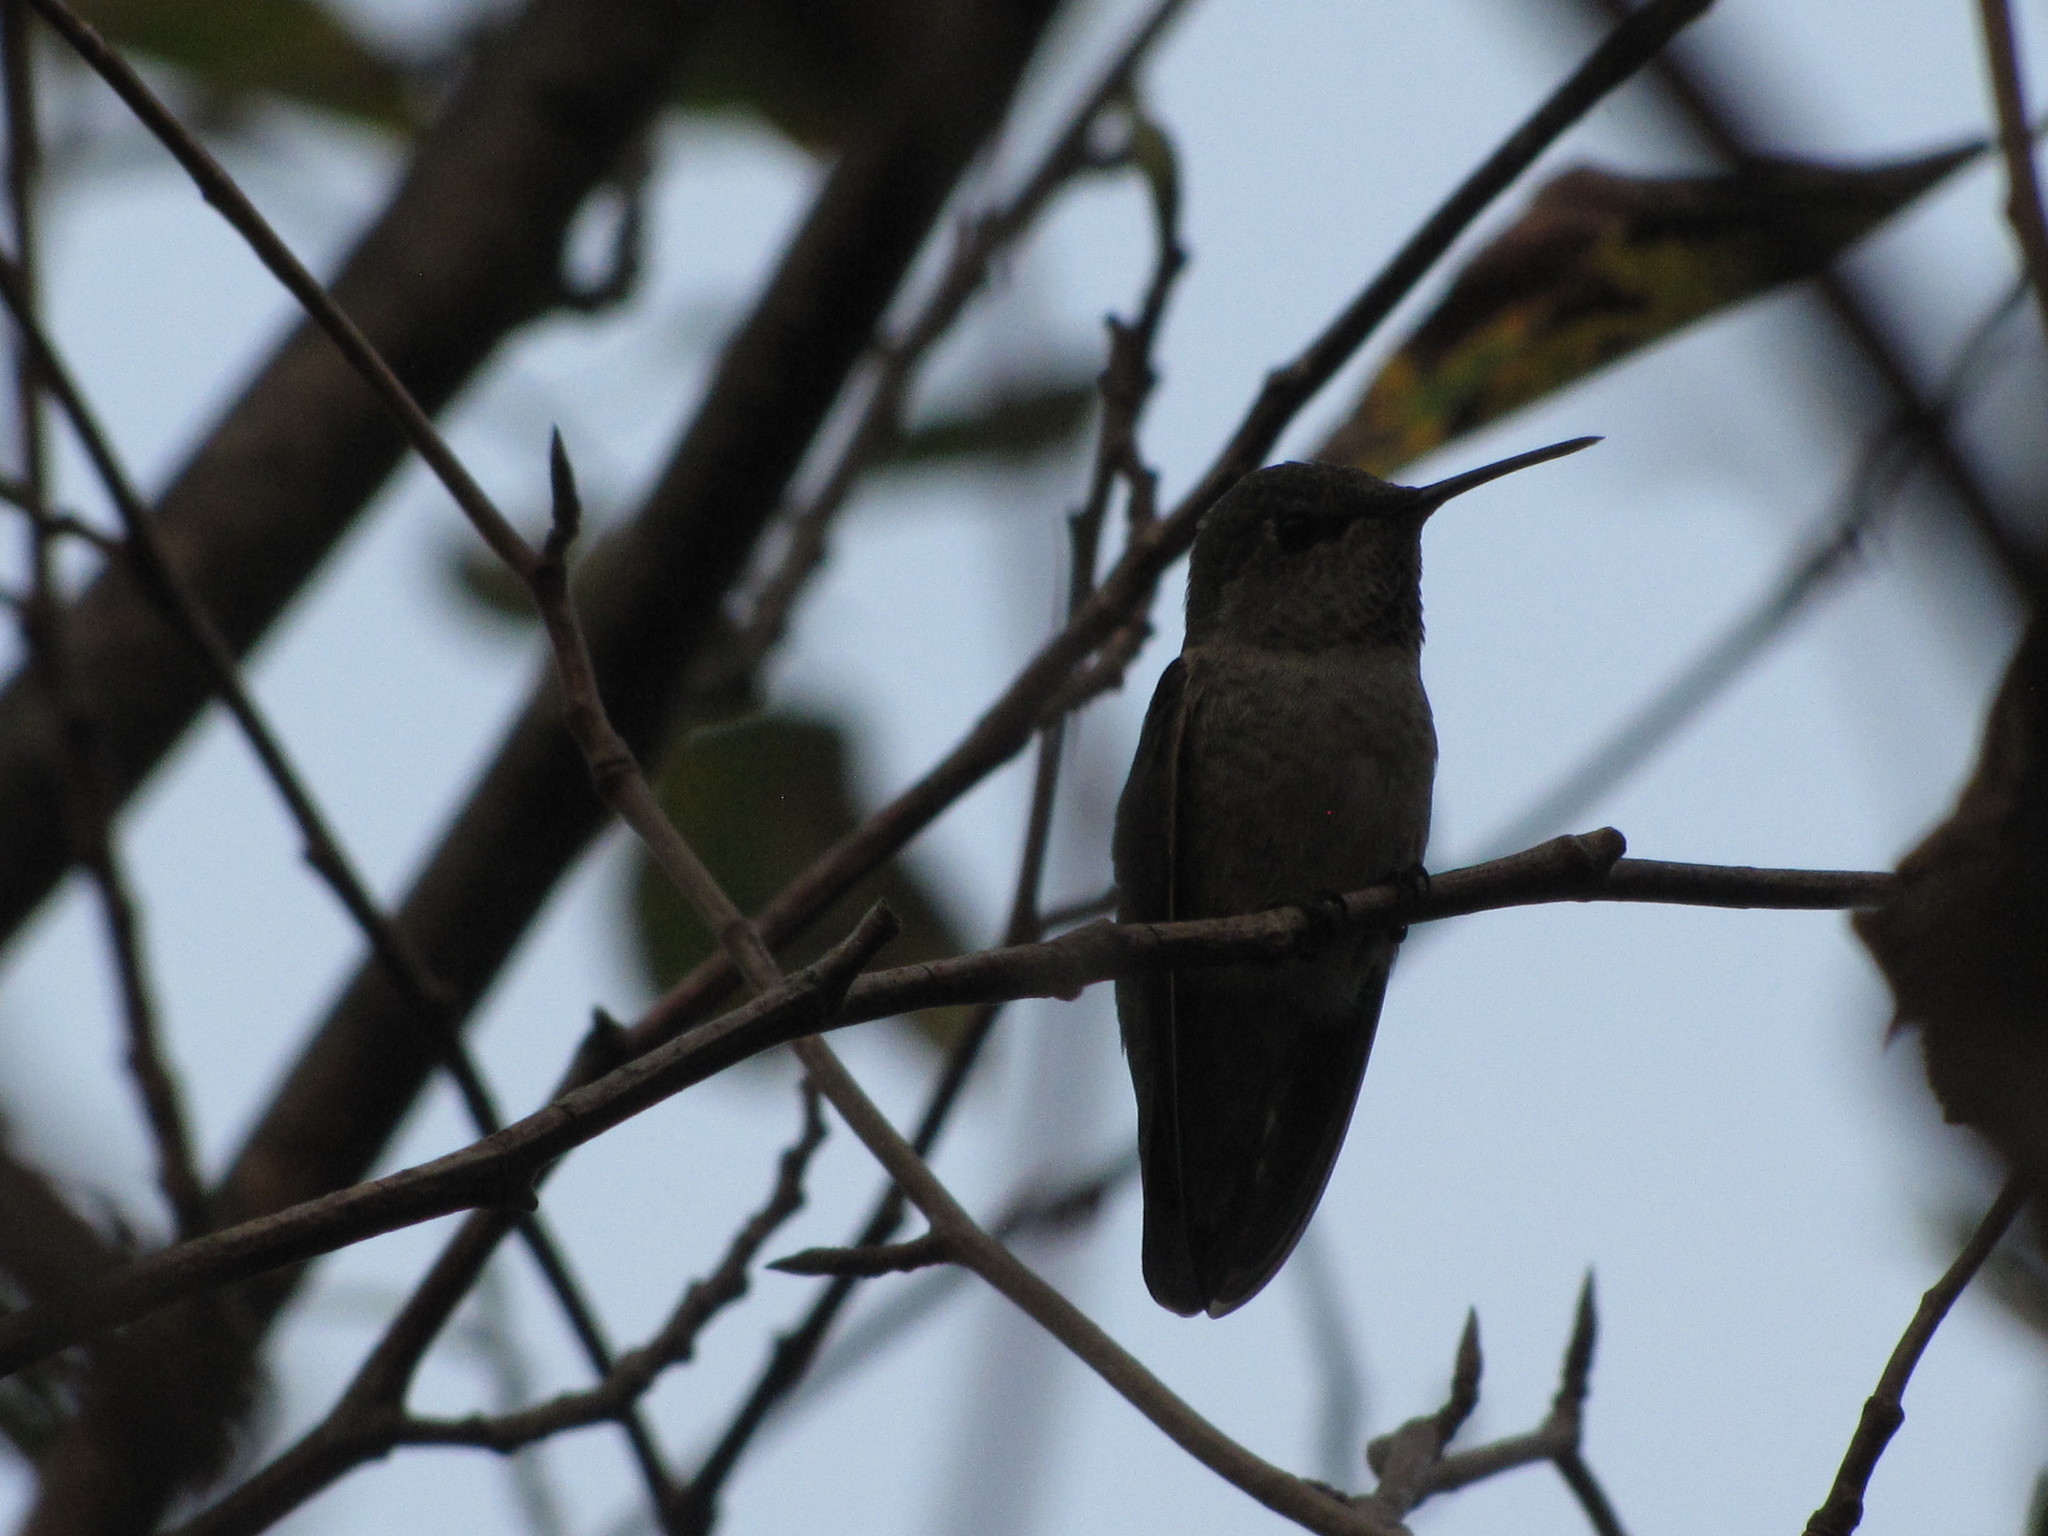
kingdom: Animalia
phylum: Chordata
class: Aves
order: Apodiformes
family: Trochilidae
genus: Calypte
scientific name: Calypte anna
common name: Anna's hummingbird
